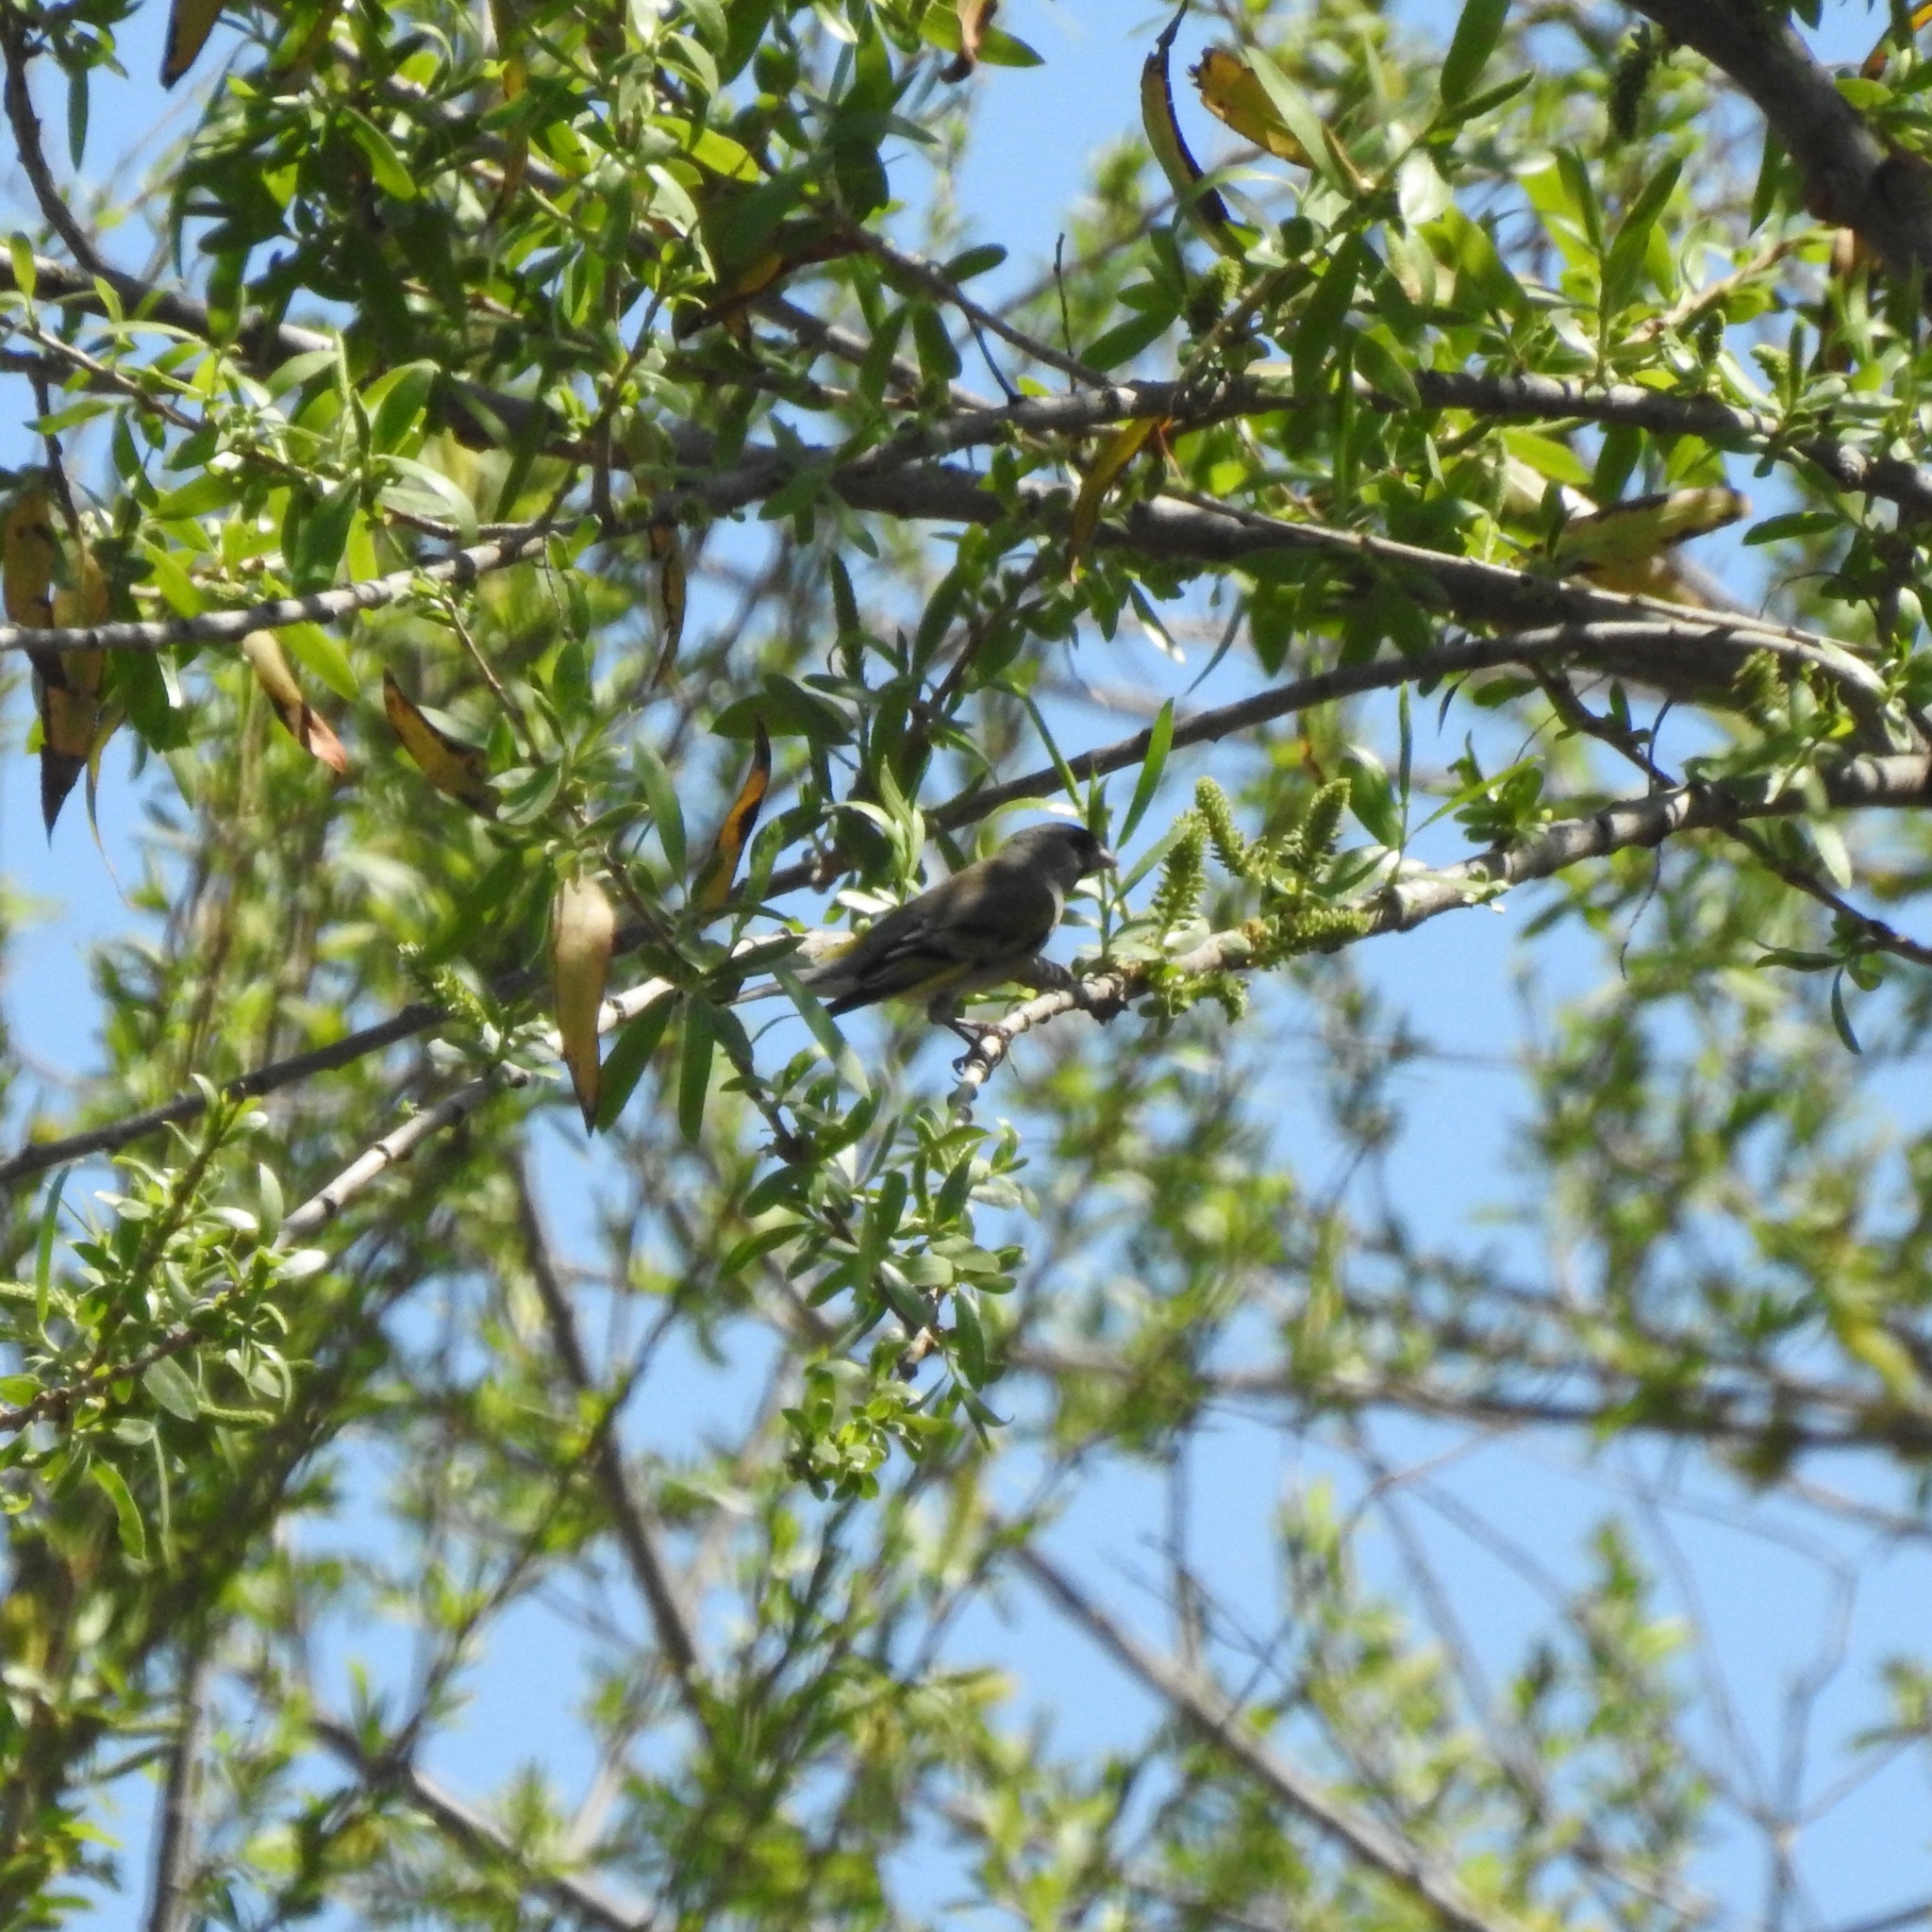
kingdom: Animalia
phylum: Chordata
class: Aves
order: Passeriformes
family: Fringillidae
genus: Spinus
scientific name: Spinus lawrencei
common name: Lawrence's goldfinch
